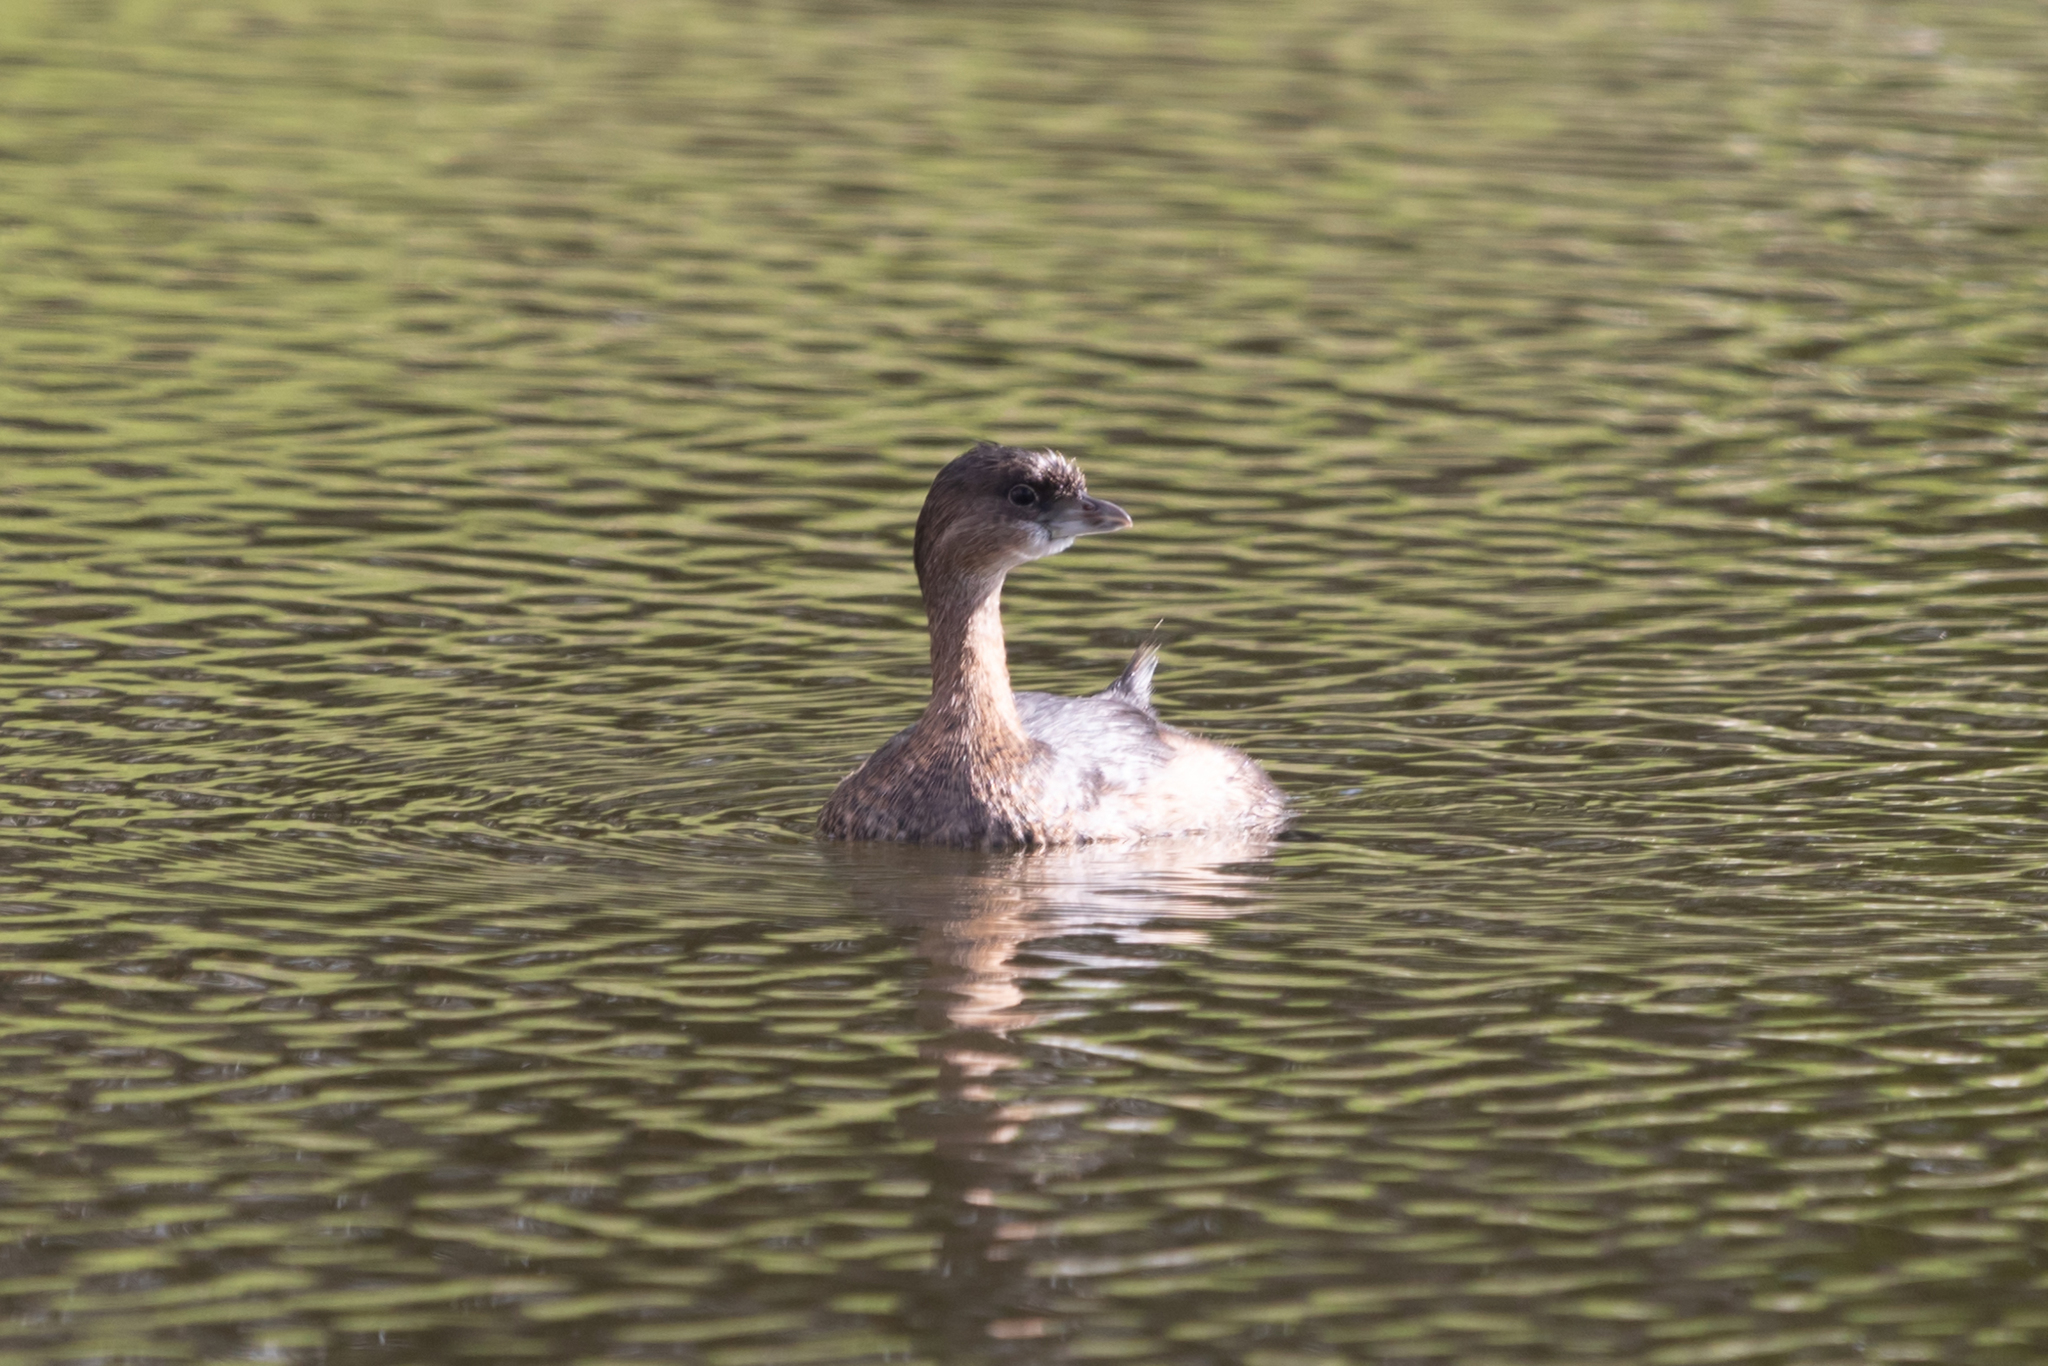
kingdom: Animalia
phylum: Chordata
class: Aves
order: Podicipediformes
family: Podicipedidae
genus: Podilymbus
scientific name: Podilymbus podiceps
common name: Pied-billed grebe
